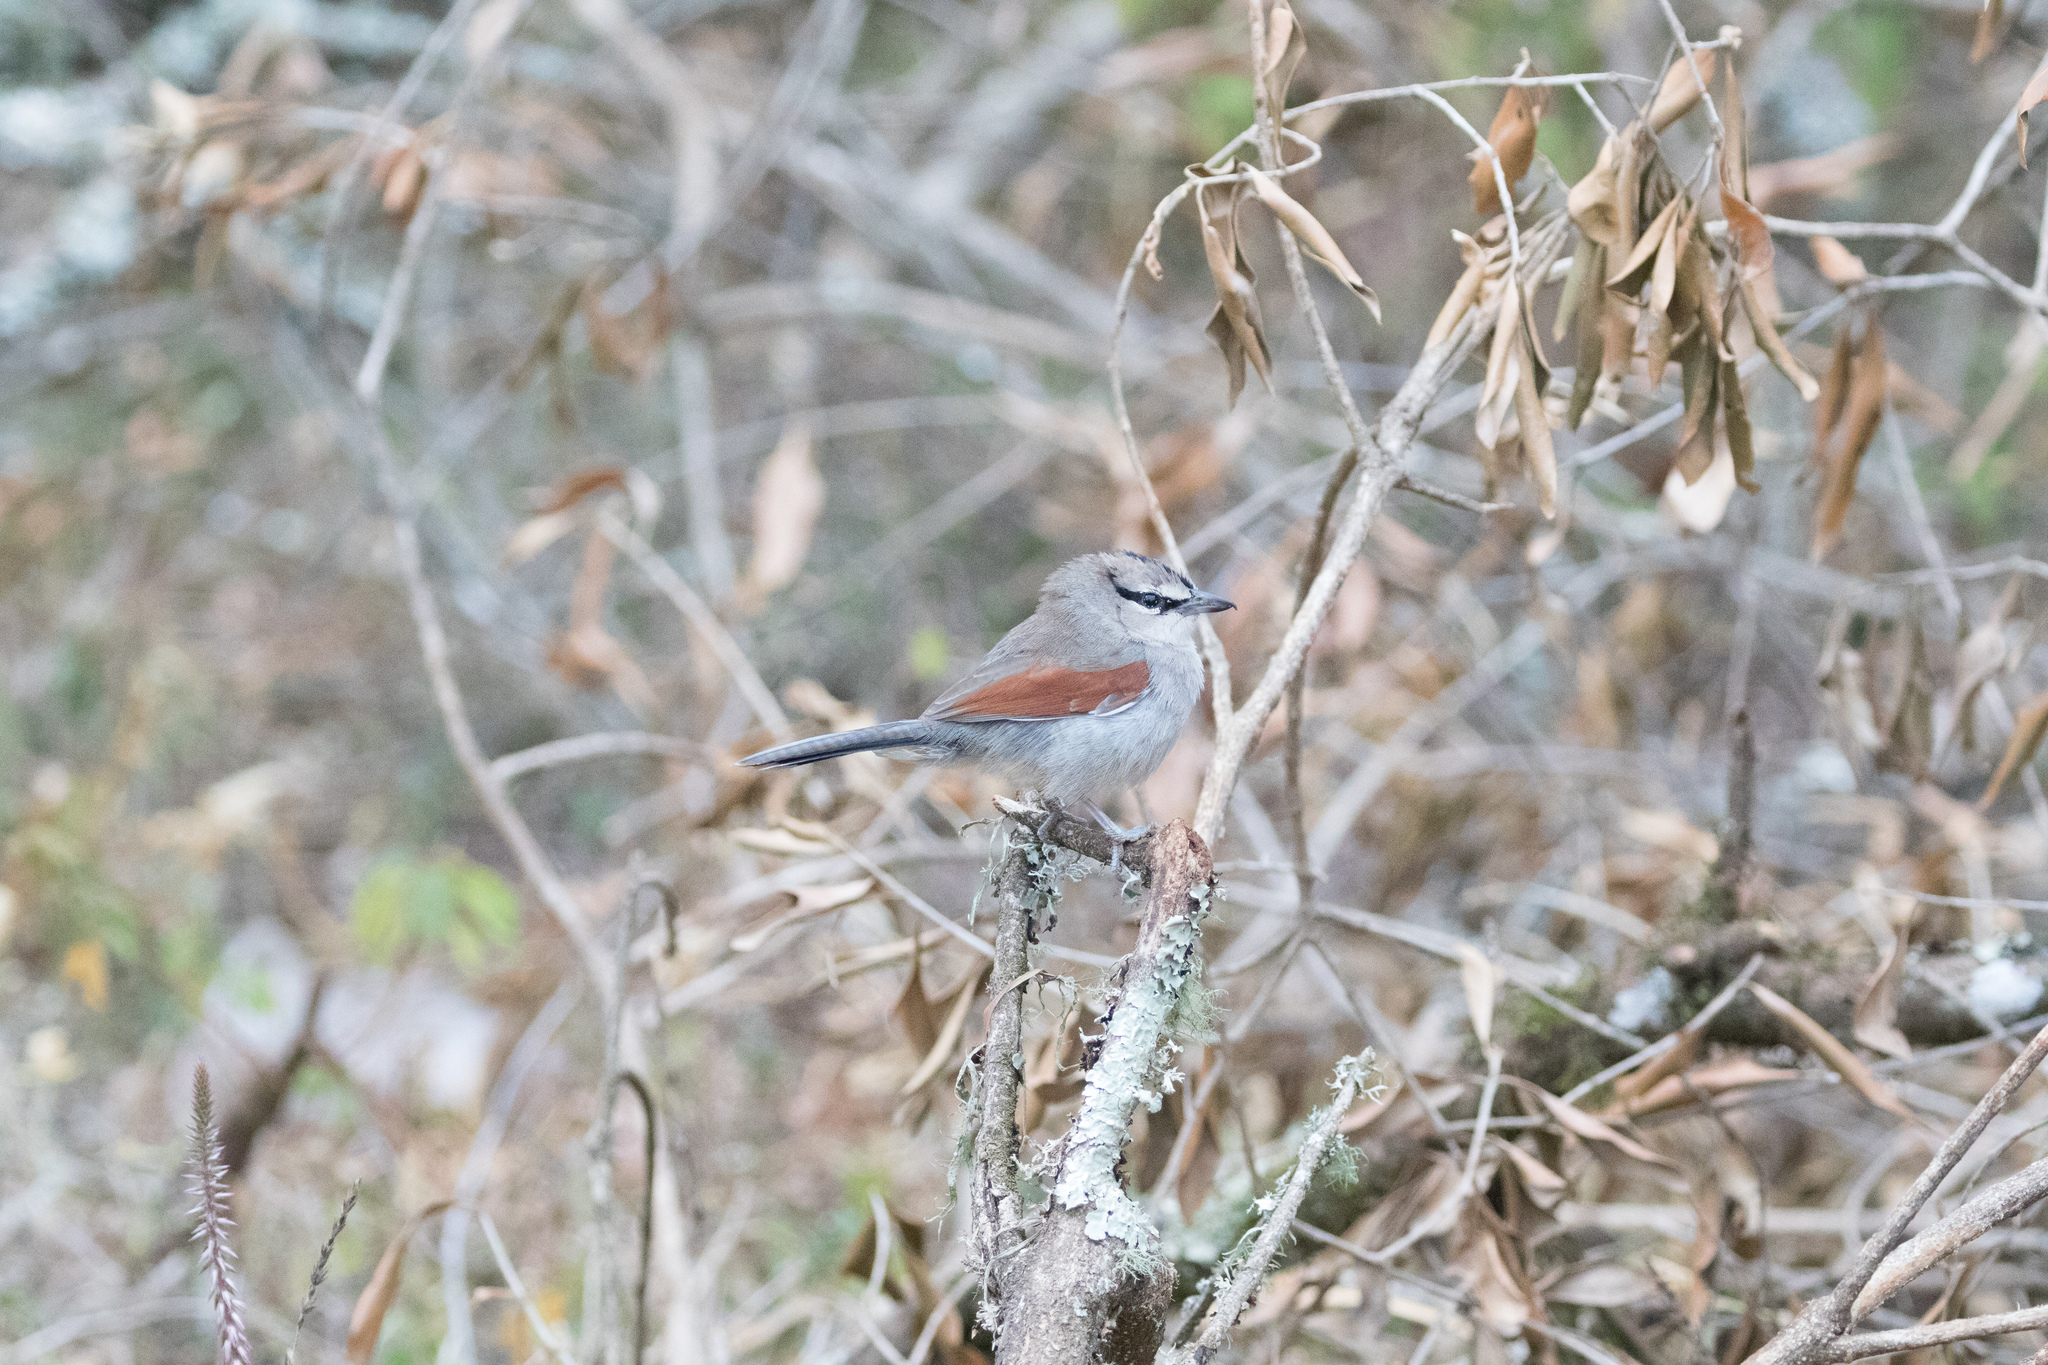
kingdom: Animalia
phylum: Chordata
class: Aves
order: Passeriformes
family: Malaconotidae
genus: Tchagra
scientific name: Tchagra jamesi
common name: Three-streaked tchagra
